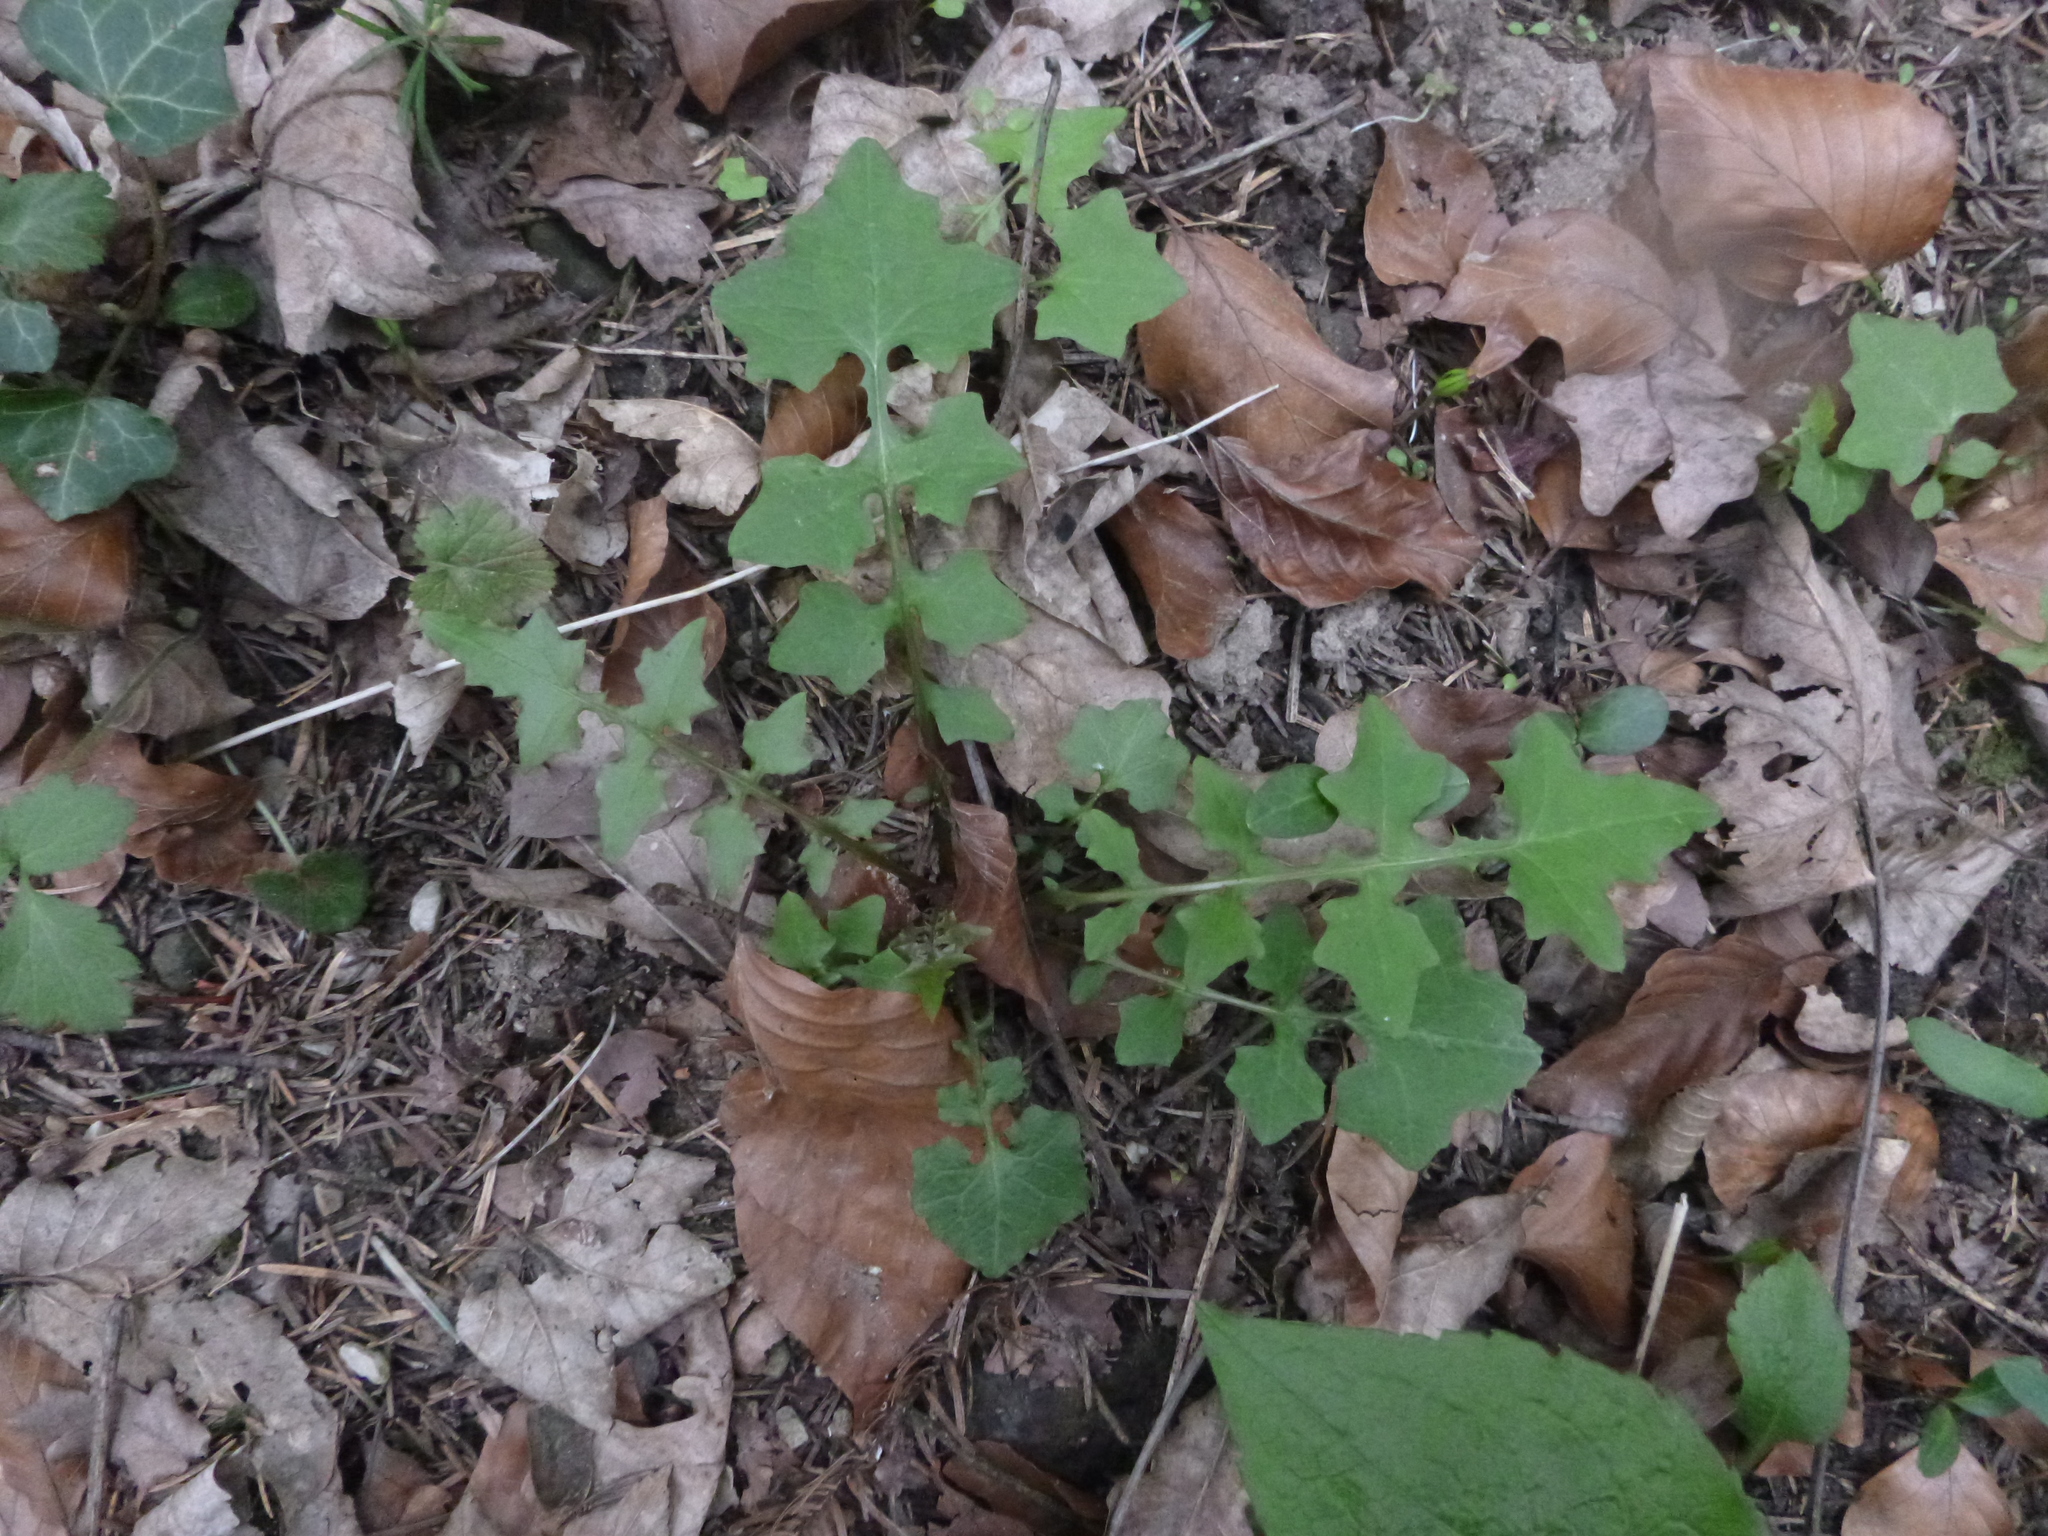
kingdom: Plantae
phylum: Tracheophyta
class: Magnoliopsida
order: Asterales
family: Asteraceae
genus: Mycelis
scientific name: Mycelis muralis
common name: Wall lettuce
